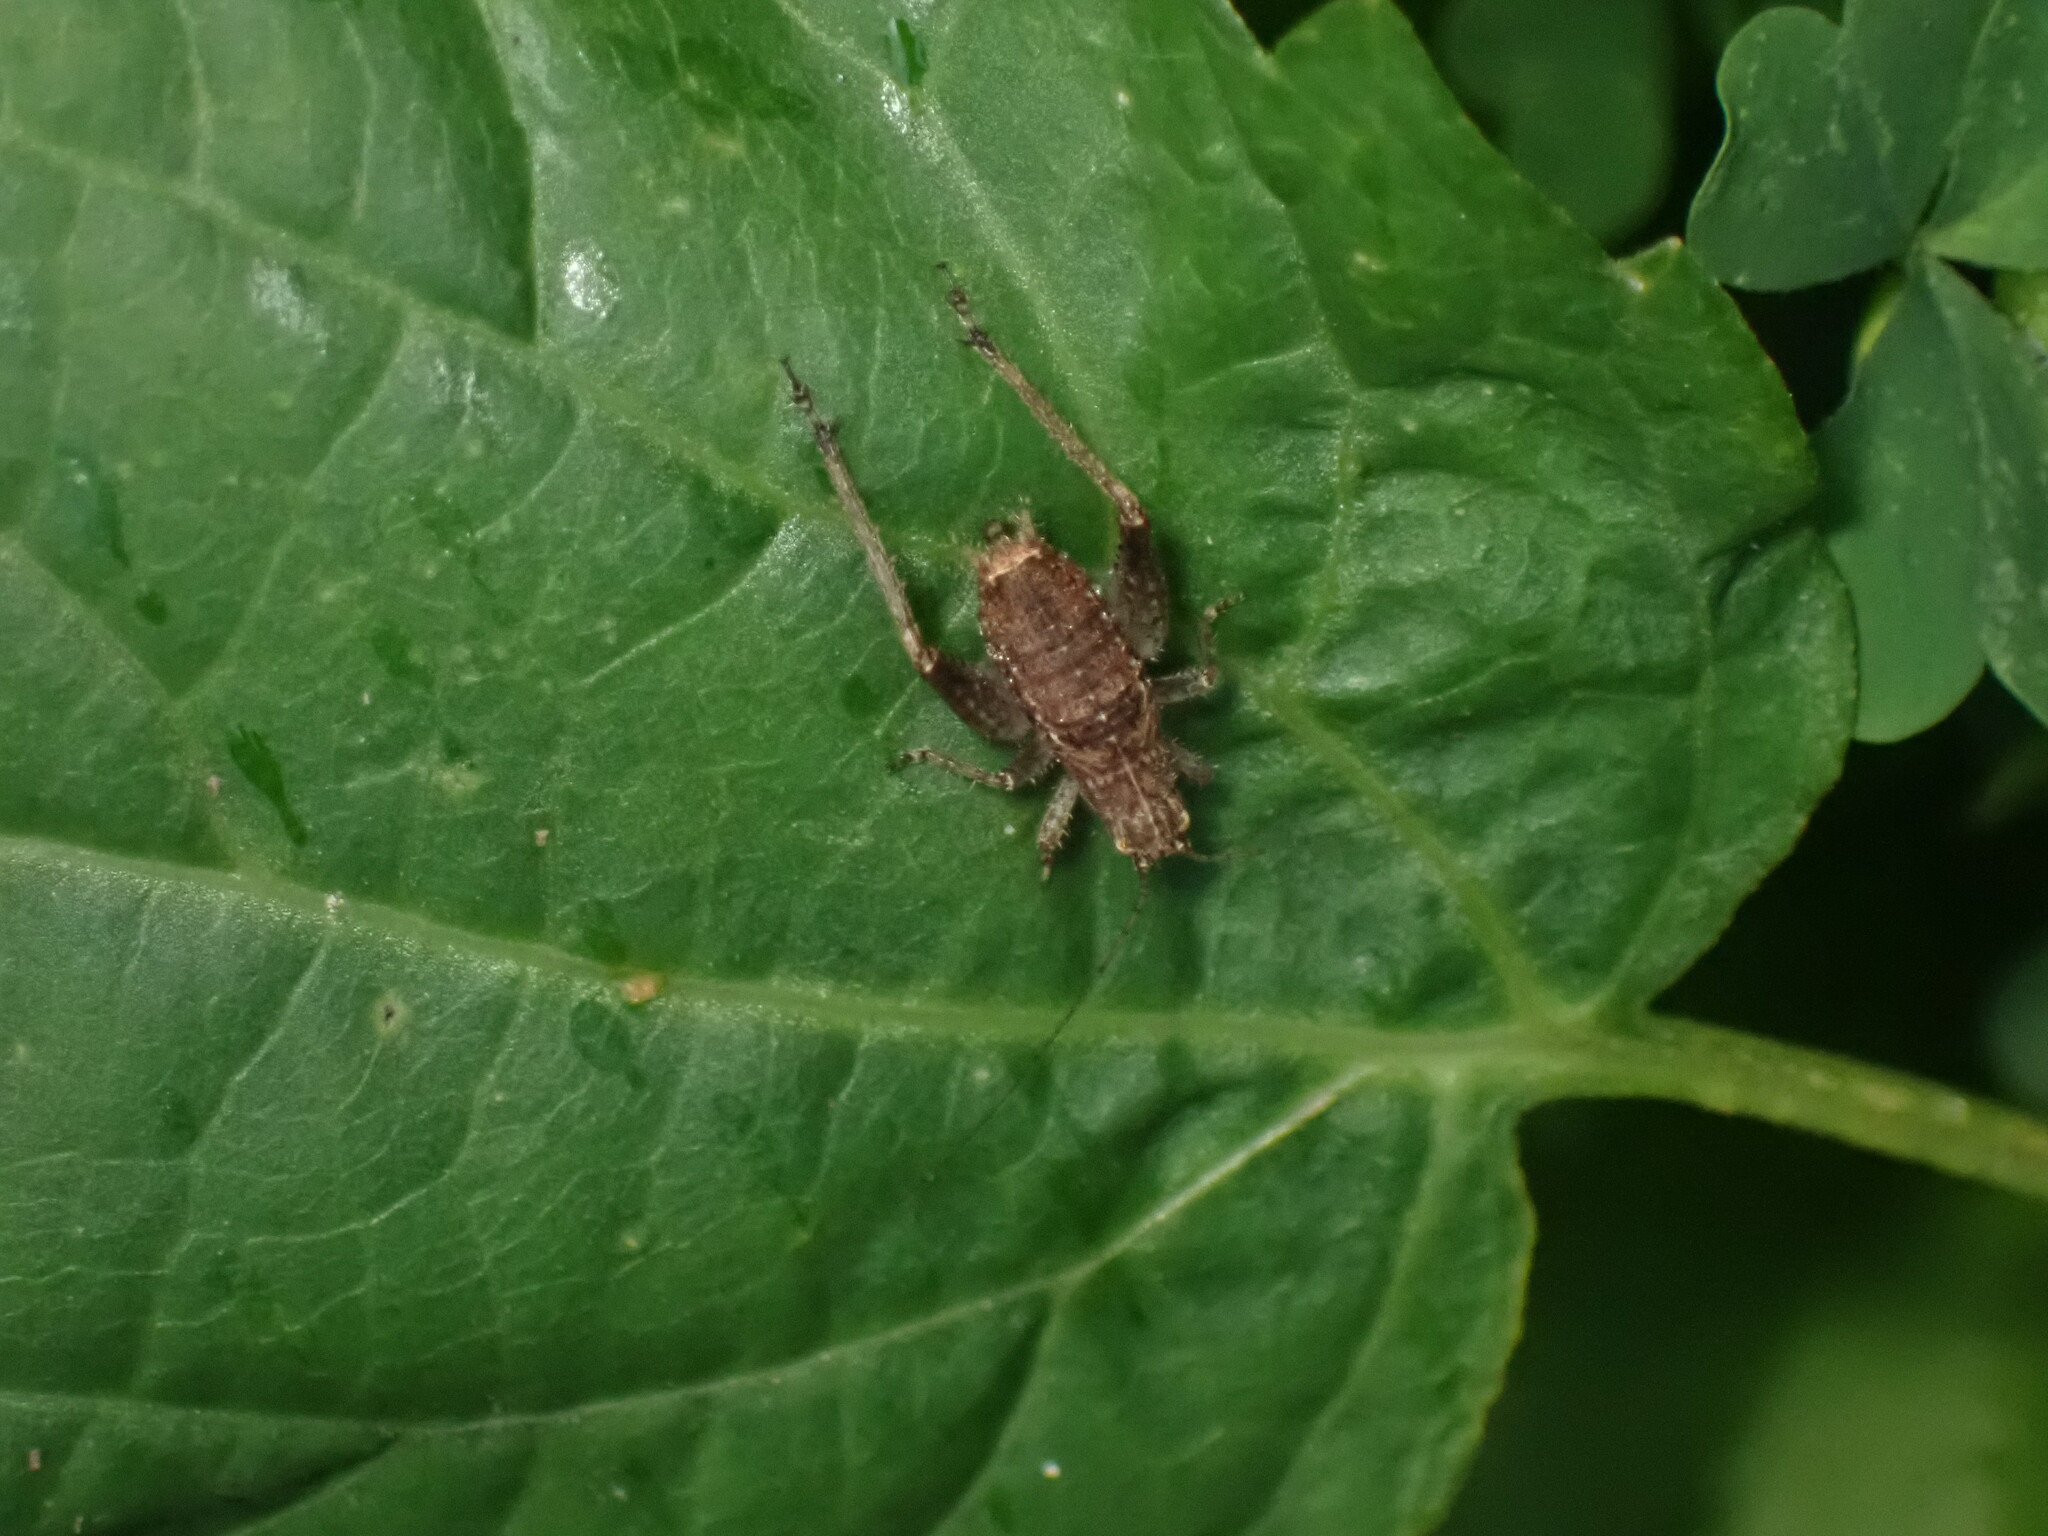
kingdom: Animalia
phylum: Arthropoda
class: Insecta
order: Orthoptera
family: Gryllidae
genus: Hapithus
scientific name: Hapithus agitator
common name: Restless bush cricket
